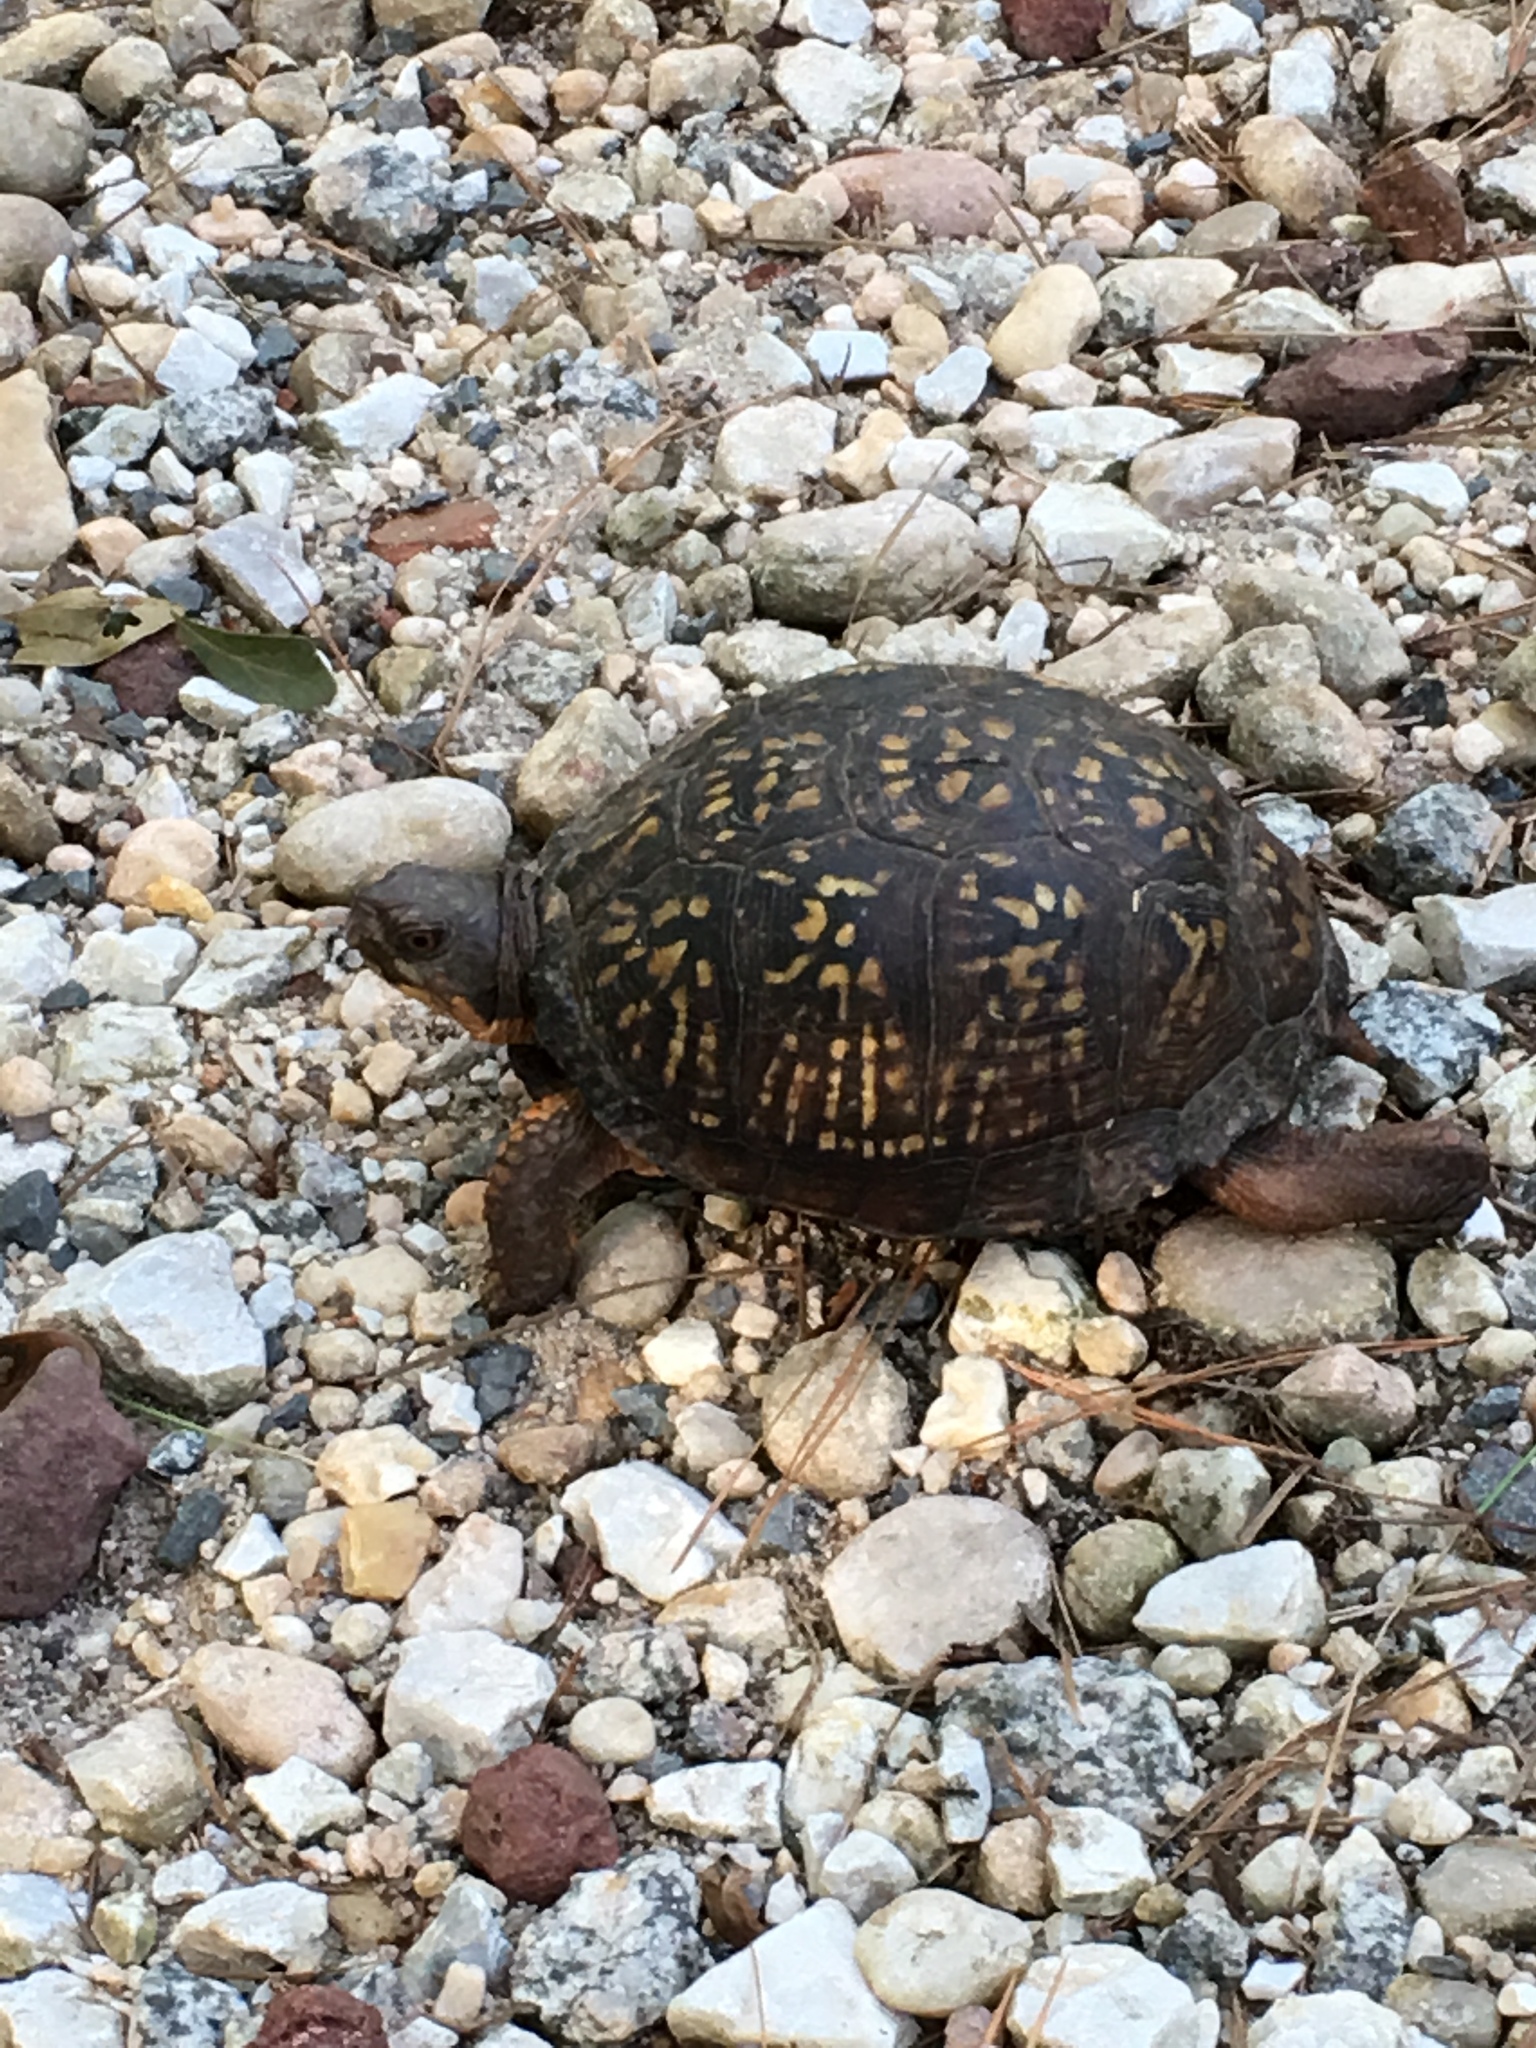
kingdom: Animalia
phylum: Chordata
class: Testudines
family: Emydidae
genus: Terrapene
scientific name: Terrapene carolina
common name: Common box turtle
